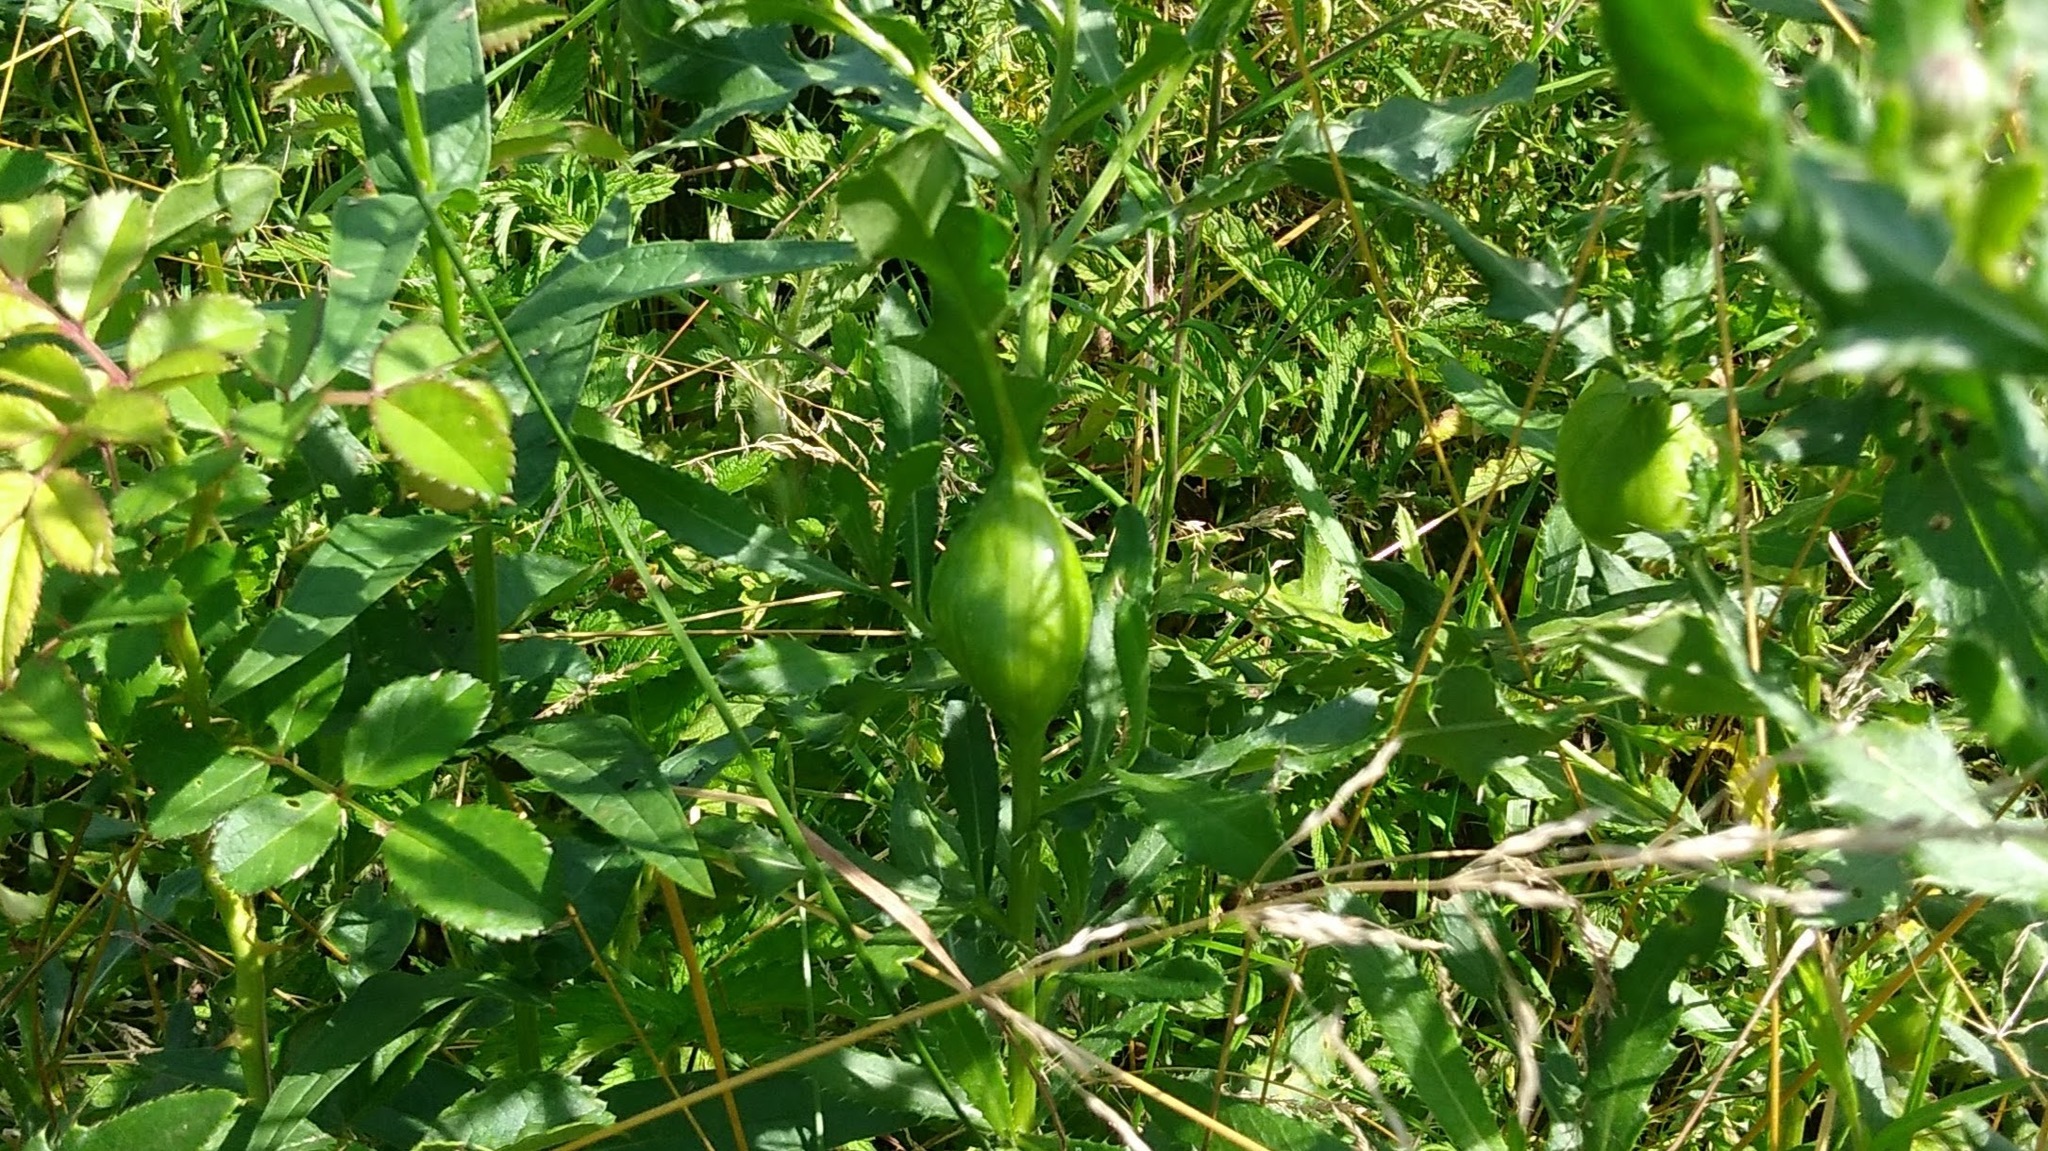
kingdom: Animalia
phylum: Arthropoda
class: Insecta
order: Diptera
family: Tephritidae
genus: Urophora
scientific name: Urophora cardui
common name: Fruit fly
